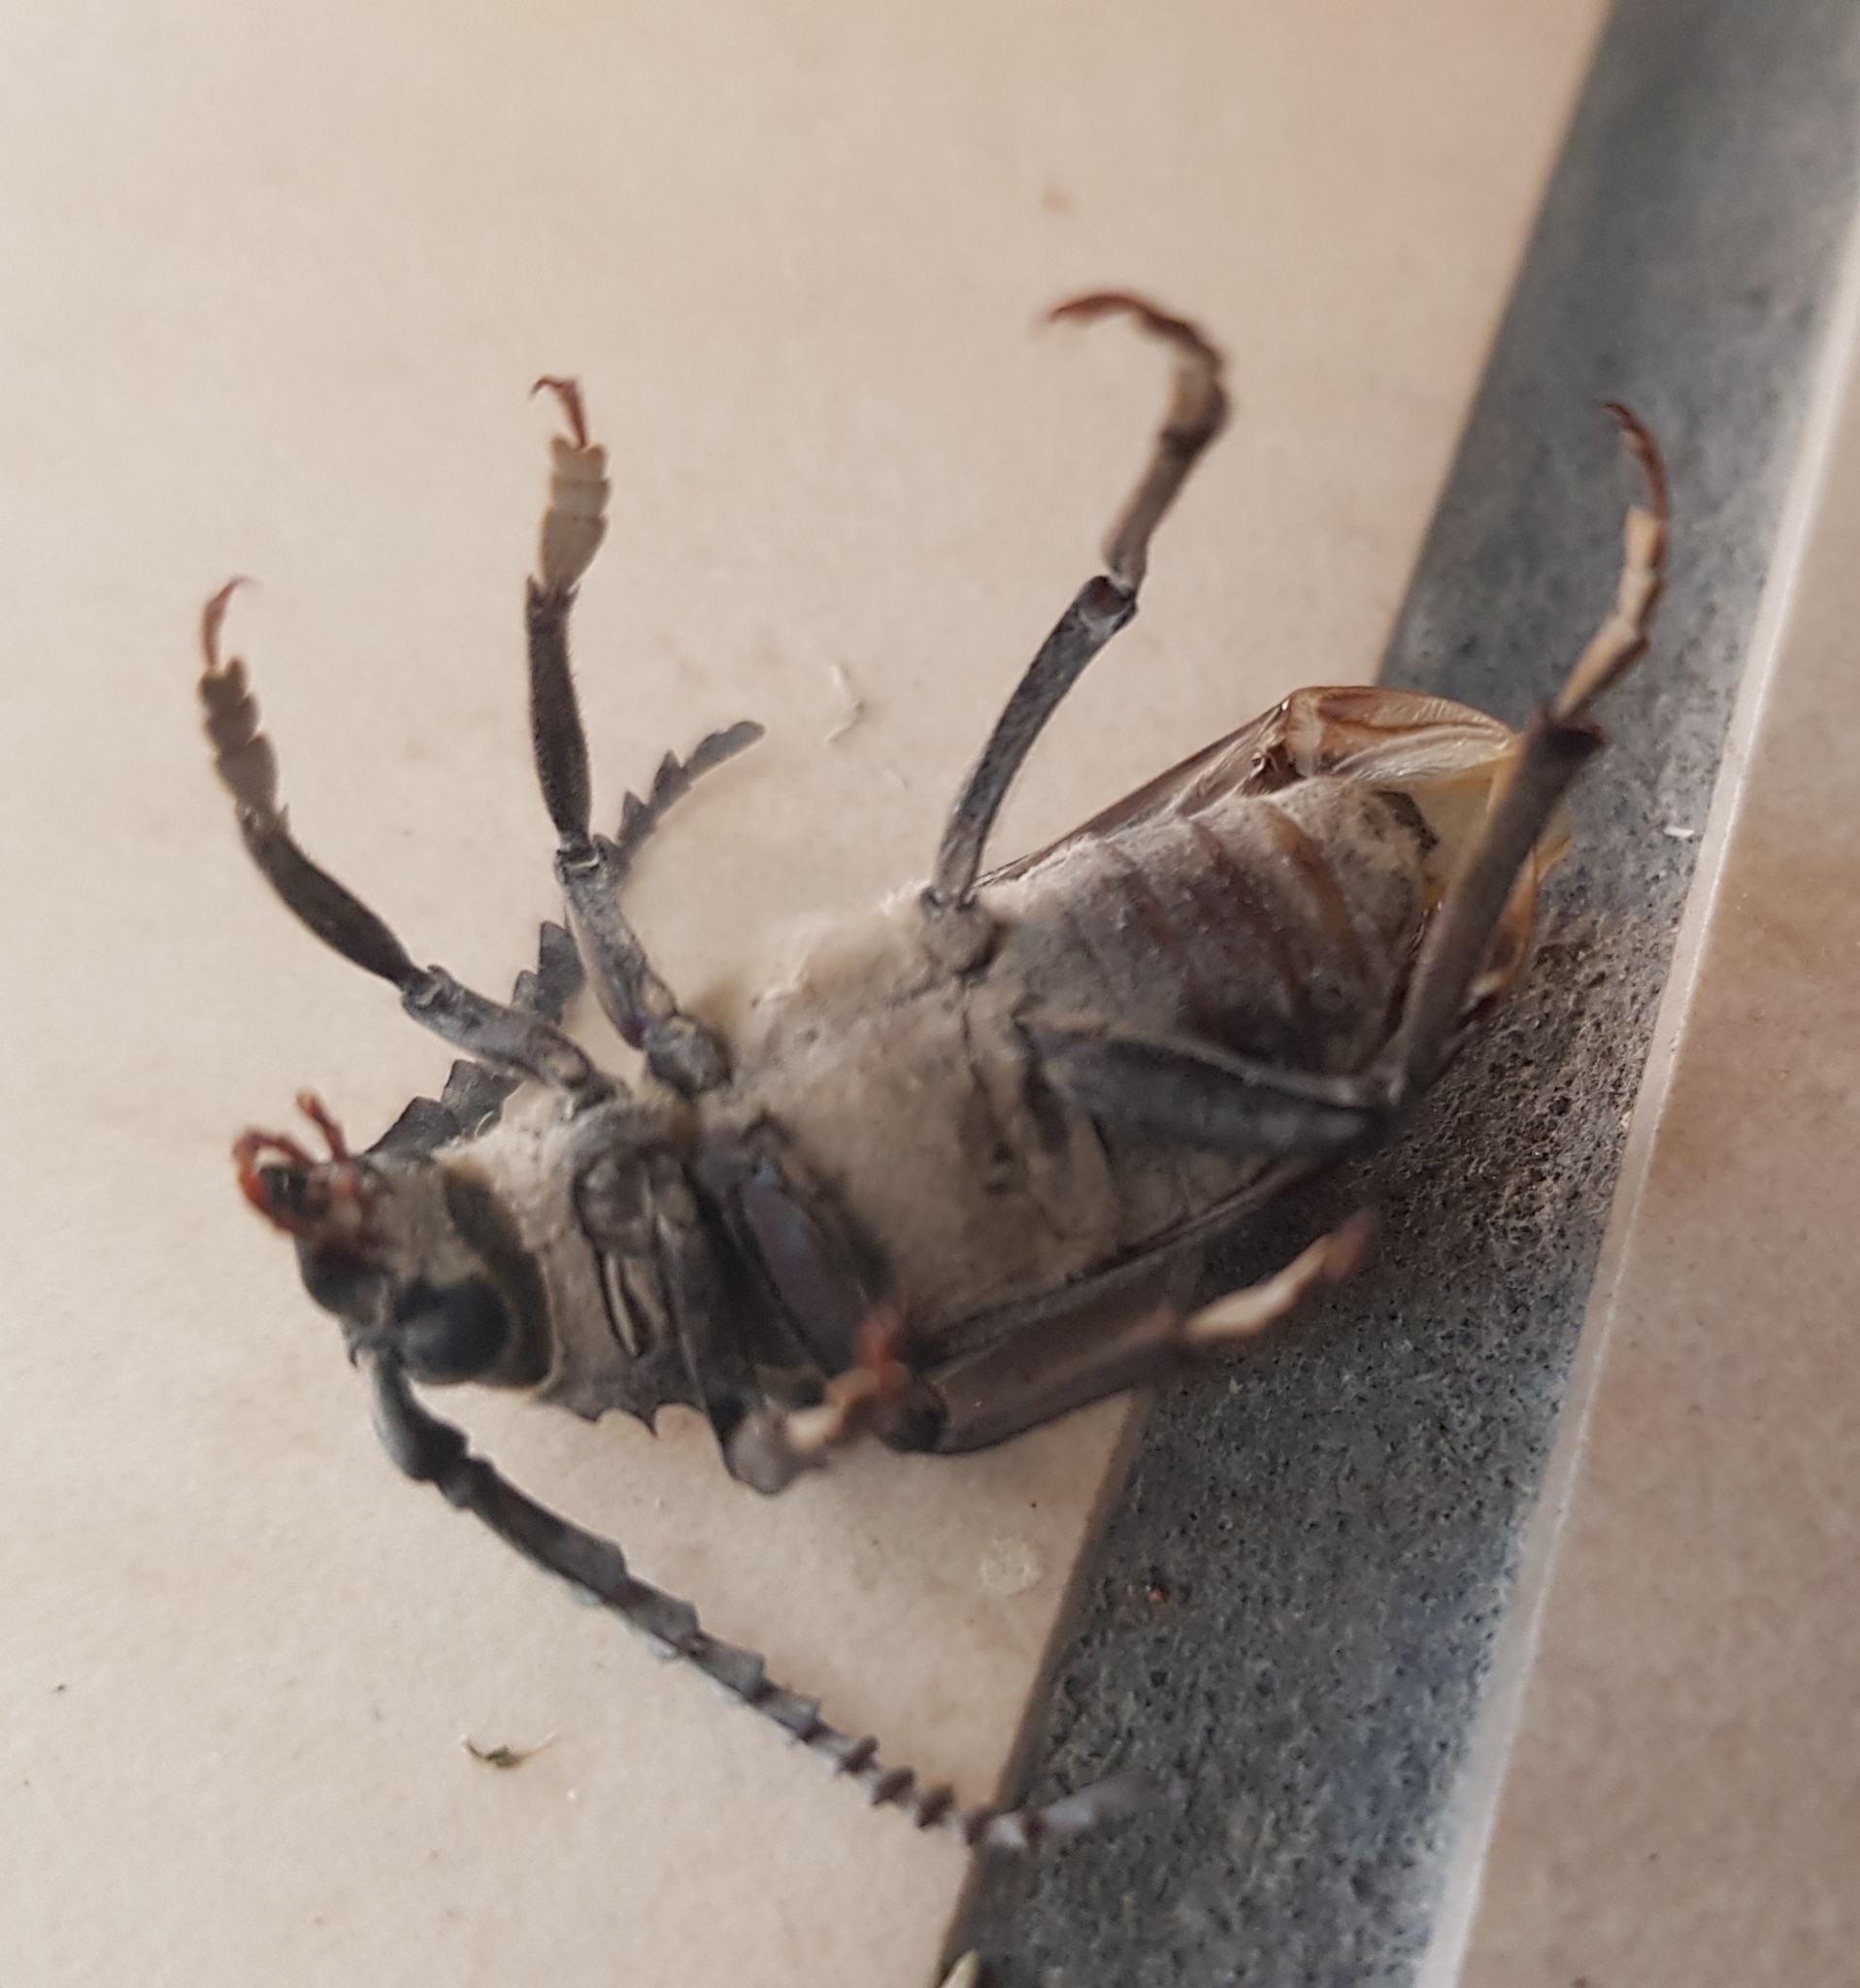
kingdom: Animalia
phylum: Arthropoda
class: Insecta
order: Coleoptera
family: Cerambycidae
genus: Prionus
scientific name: Prionus coriarius
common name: Tanner beetle
